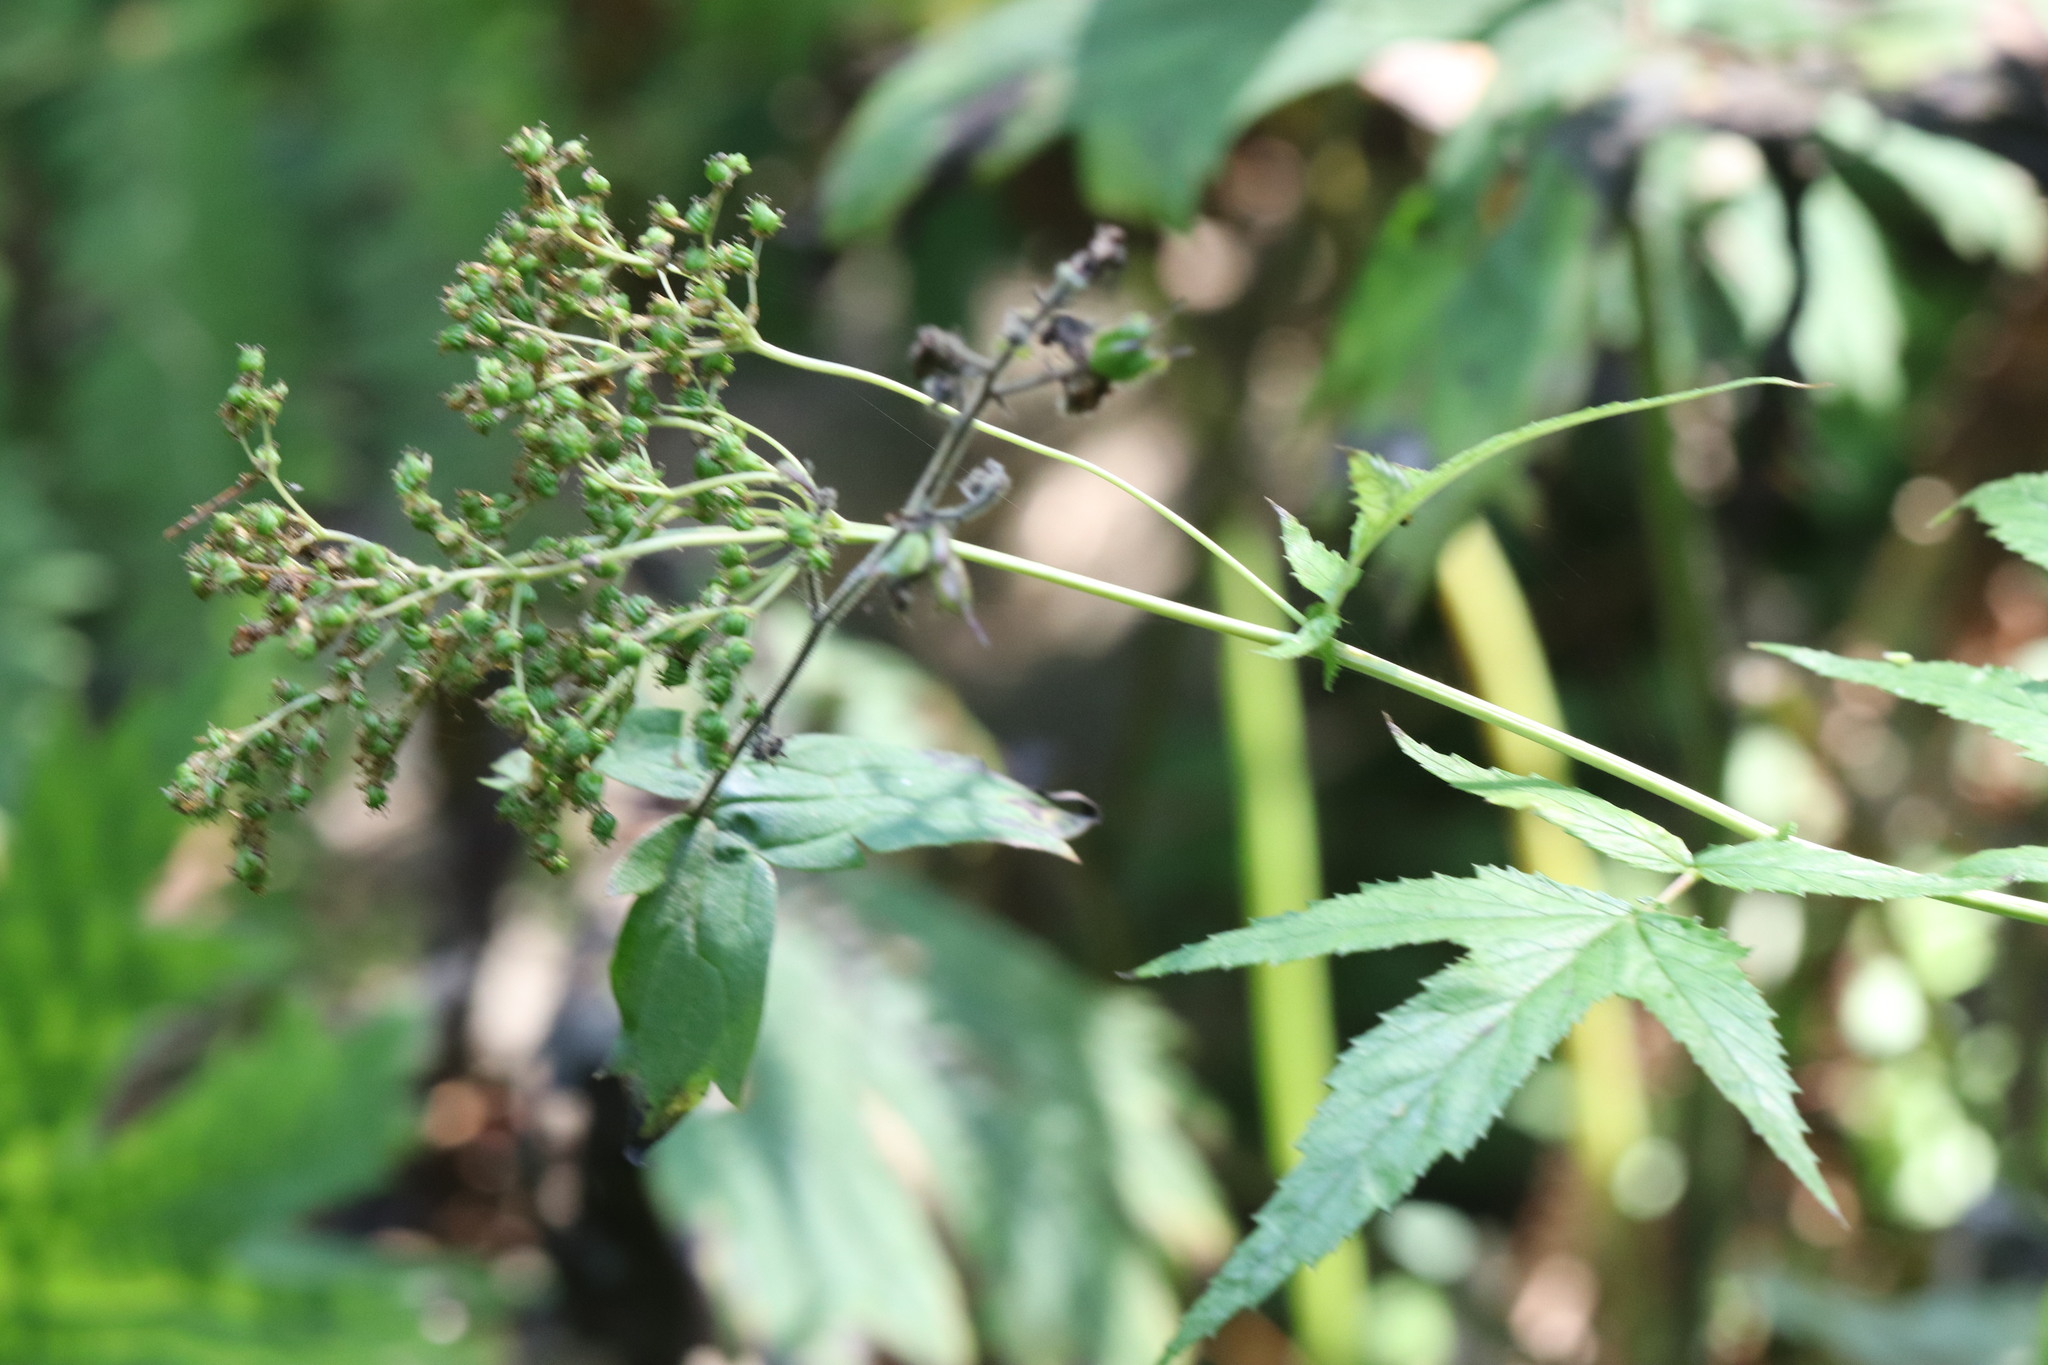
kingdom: Plantae
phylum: Tracheophyta
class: Magnoliopsida
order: Rosales
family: Rosaceae
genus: Filipendula
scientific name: Filipendula ulmaria
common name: Meadowsweet
